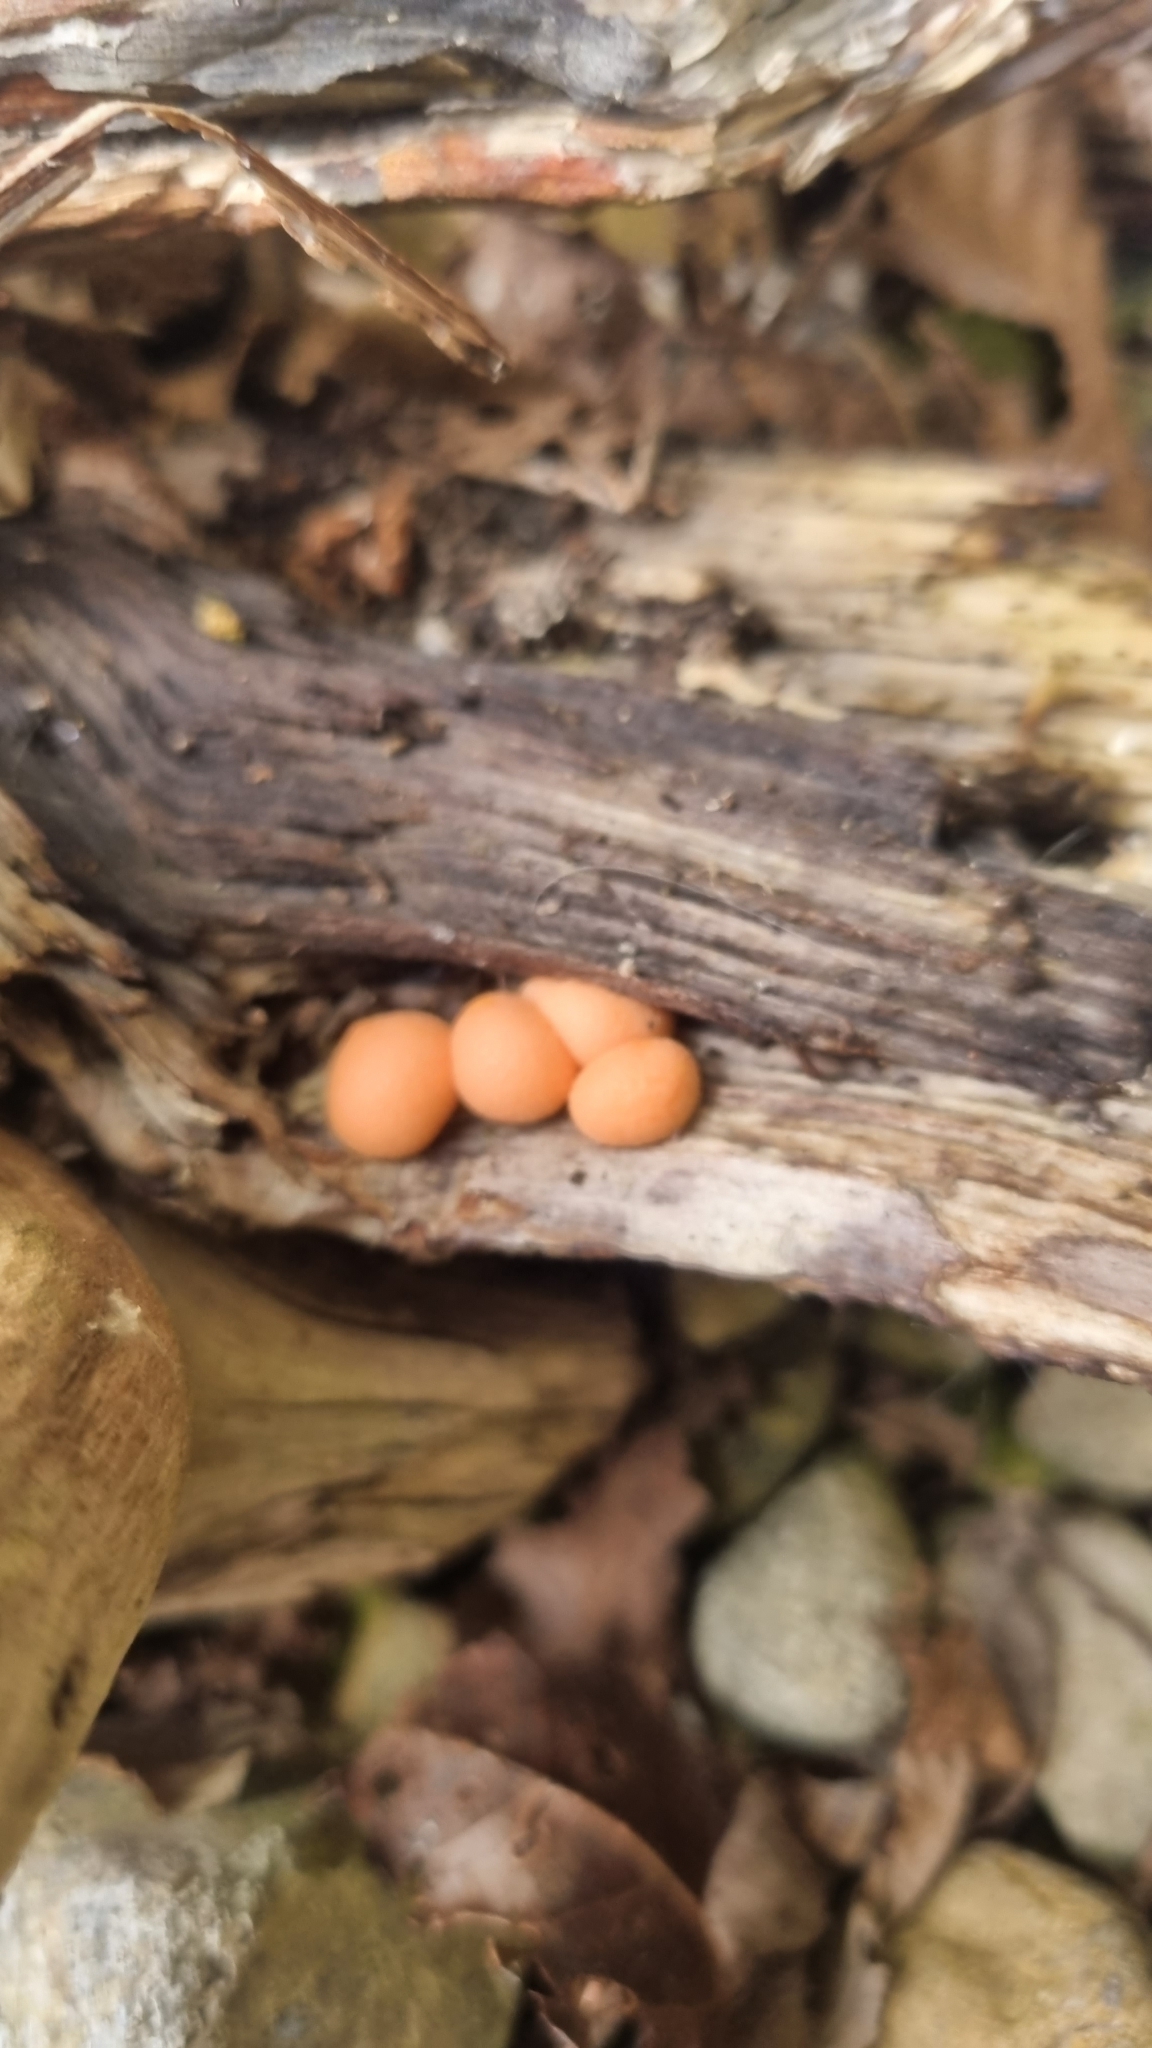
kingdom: Protozoa
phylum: Mycetozoa
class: Myxomycetes
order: Cribrariales
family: Tubiferaceae
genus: Lycogala
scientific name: Lycogala epidendrum
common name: Wolf's milk
